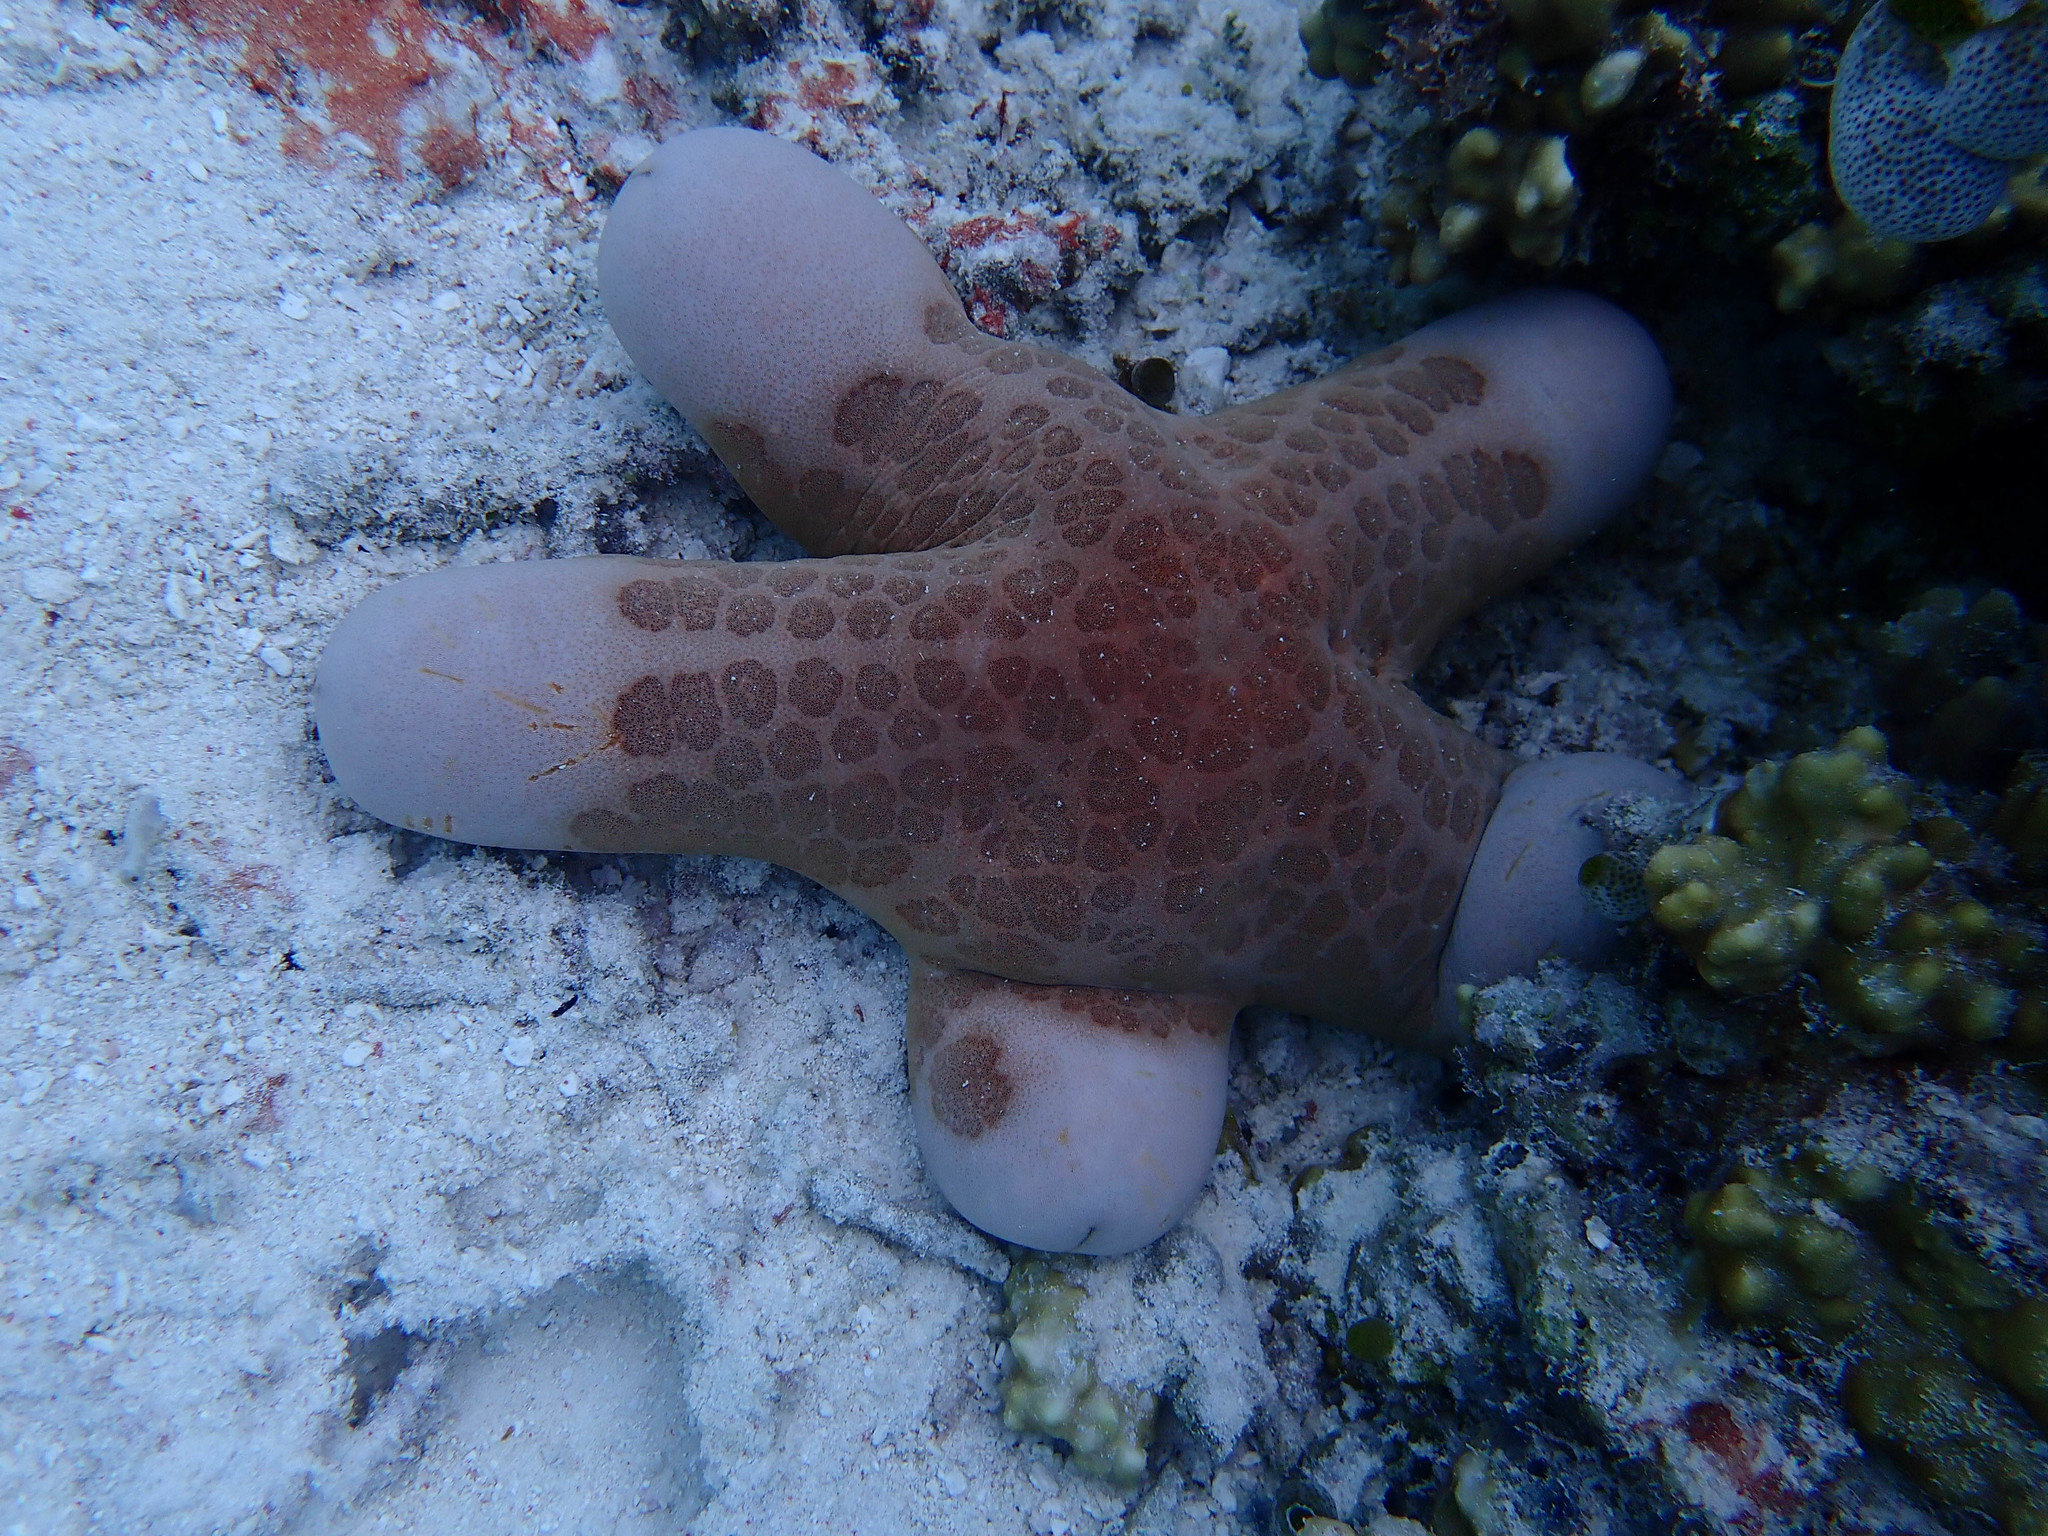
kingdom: Animalia
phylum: Echinodermata
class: Asteroidea
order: Valvatida
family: Oreasteridae
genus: Choriaster
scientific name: Choriaster granulatus
